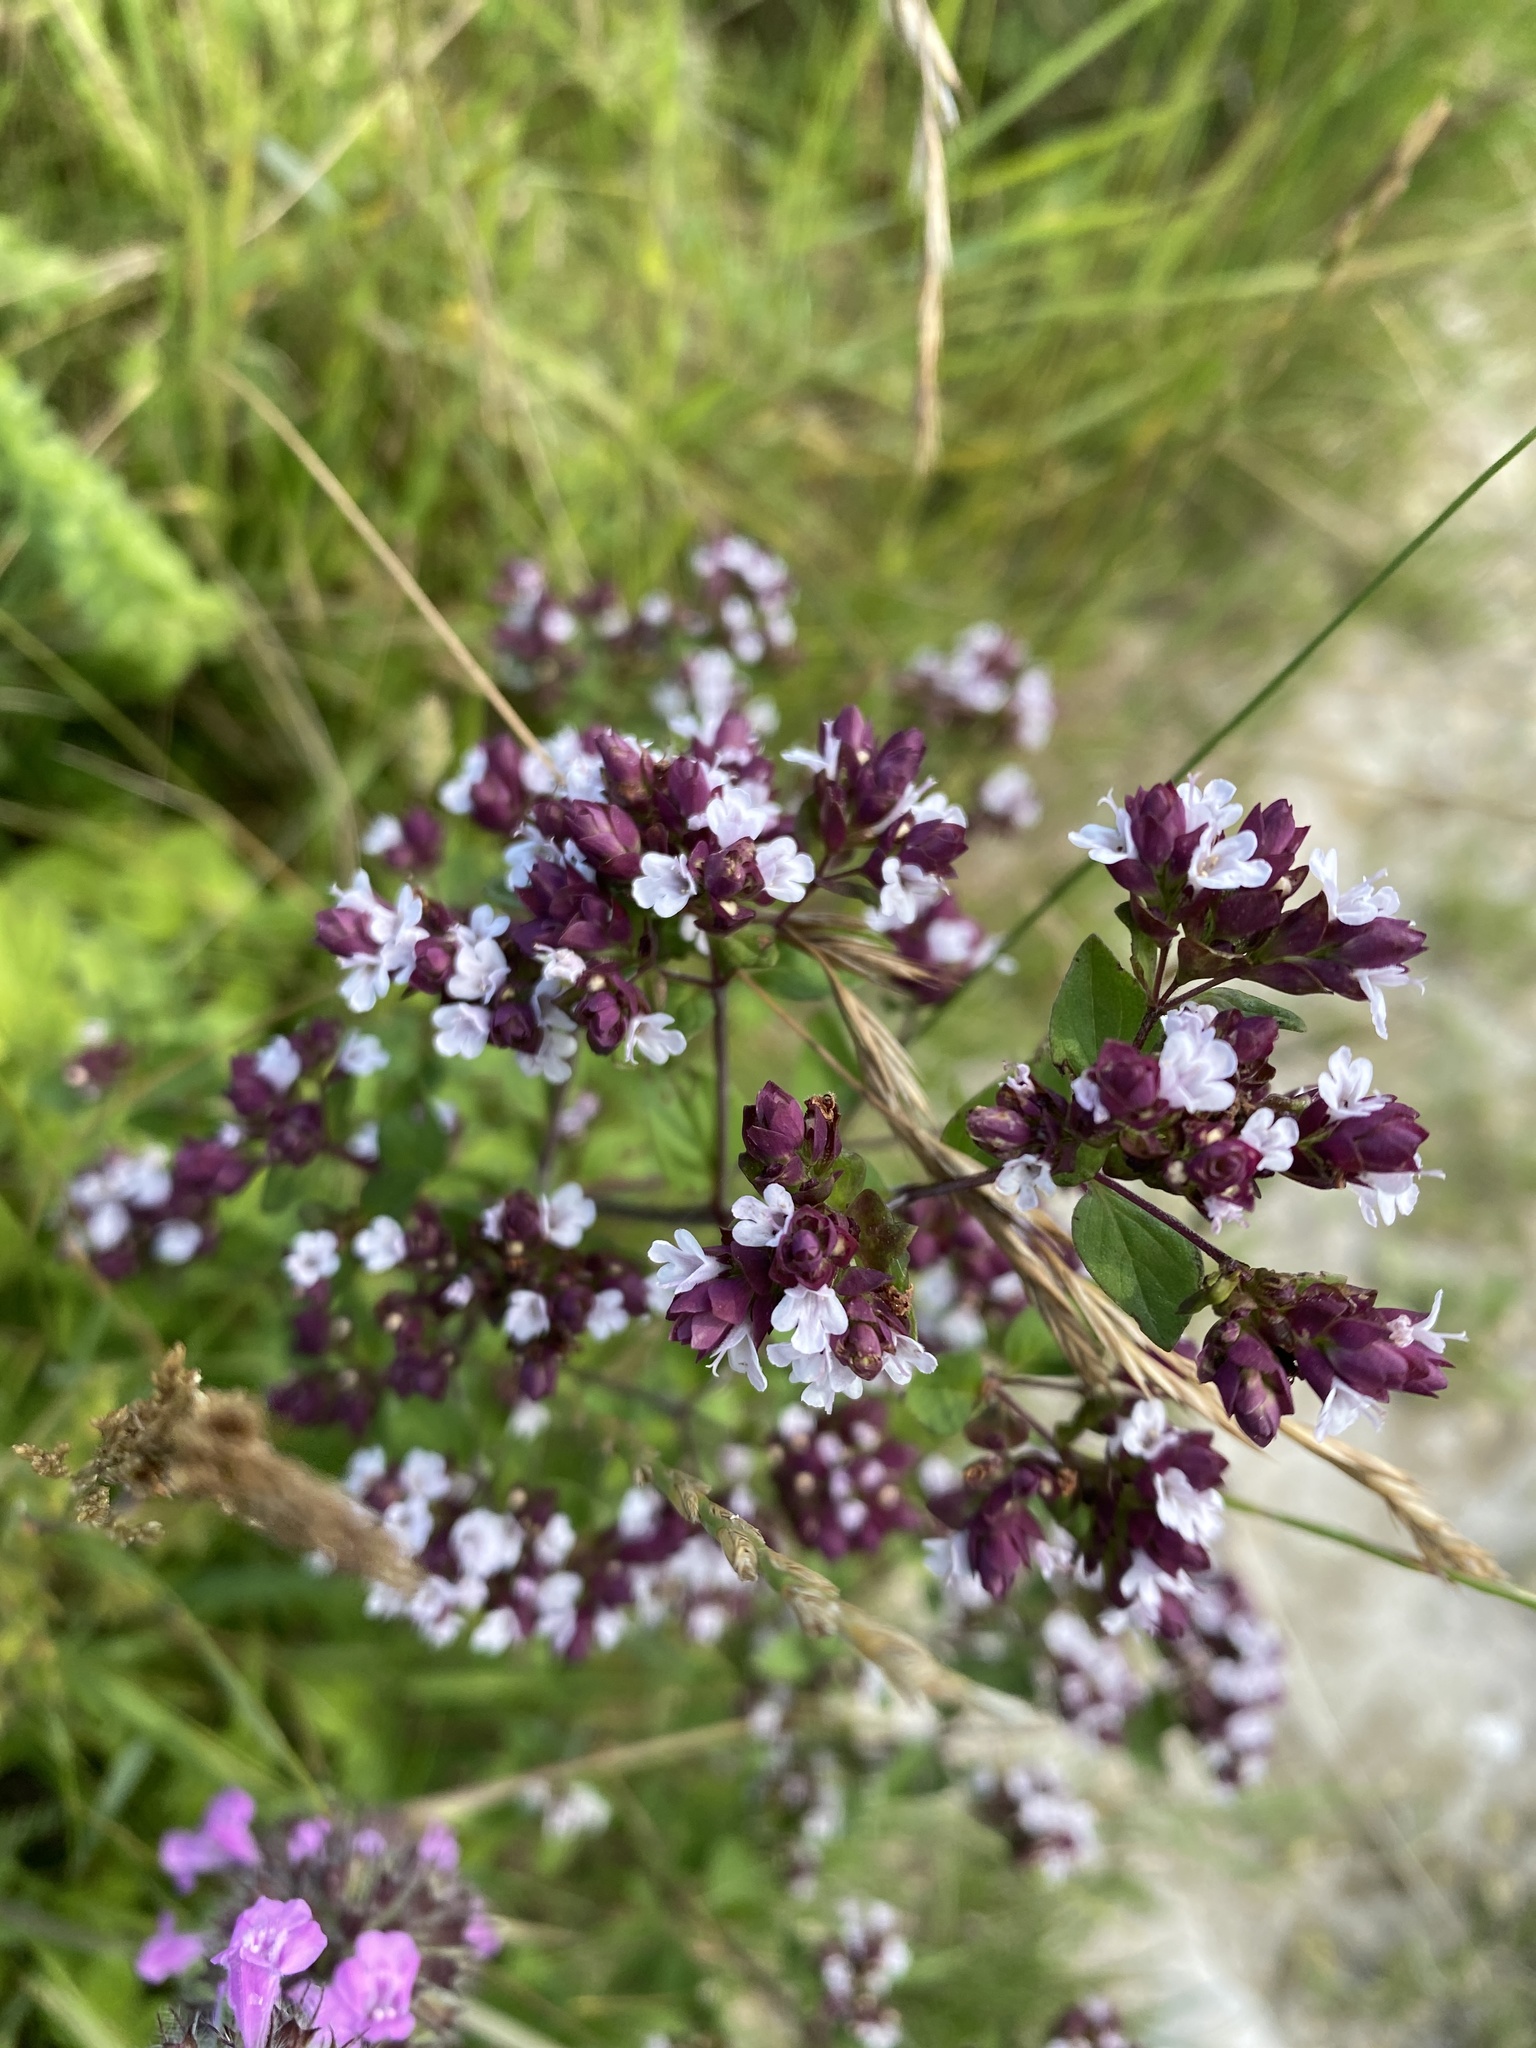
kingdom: Plantae
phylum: Tracheophyta
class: Magnoliopsida
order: Lamiales
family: Lamiaceae
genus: Origanum
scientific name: Origanum vulgare
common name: Wild marjoram
